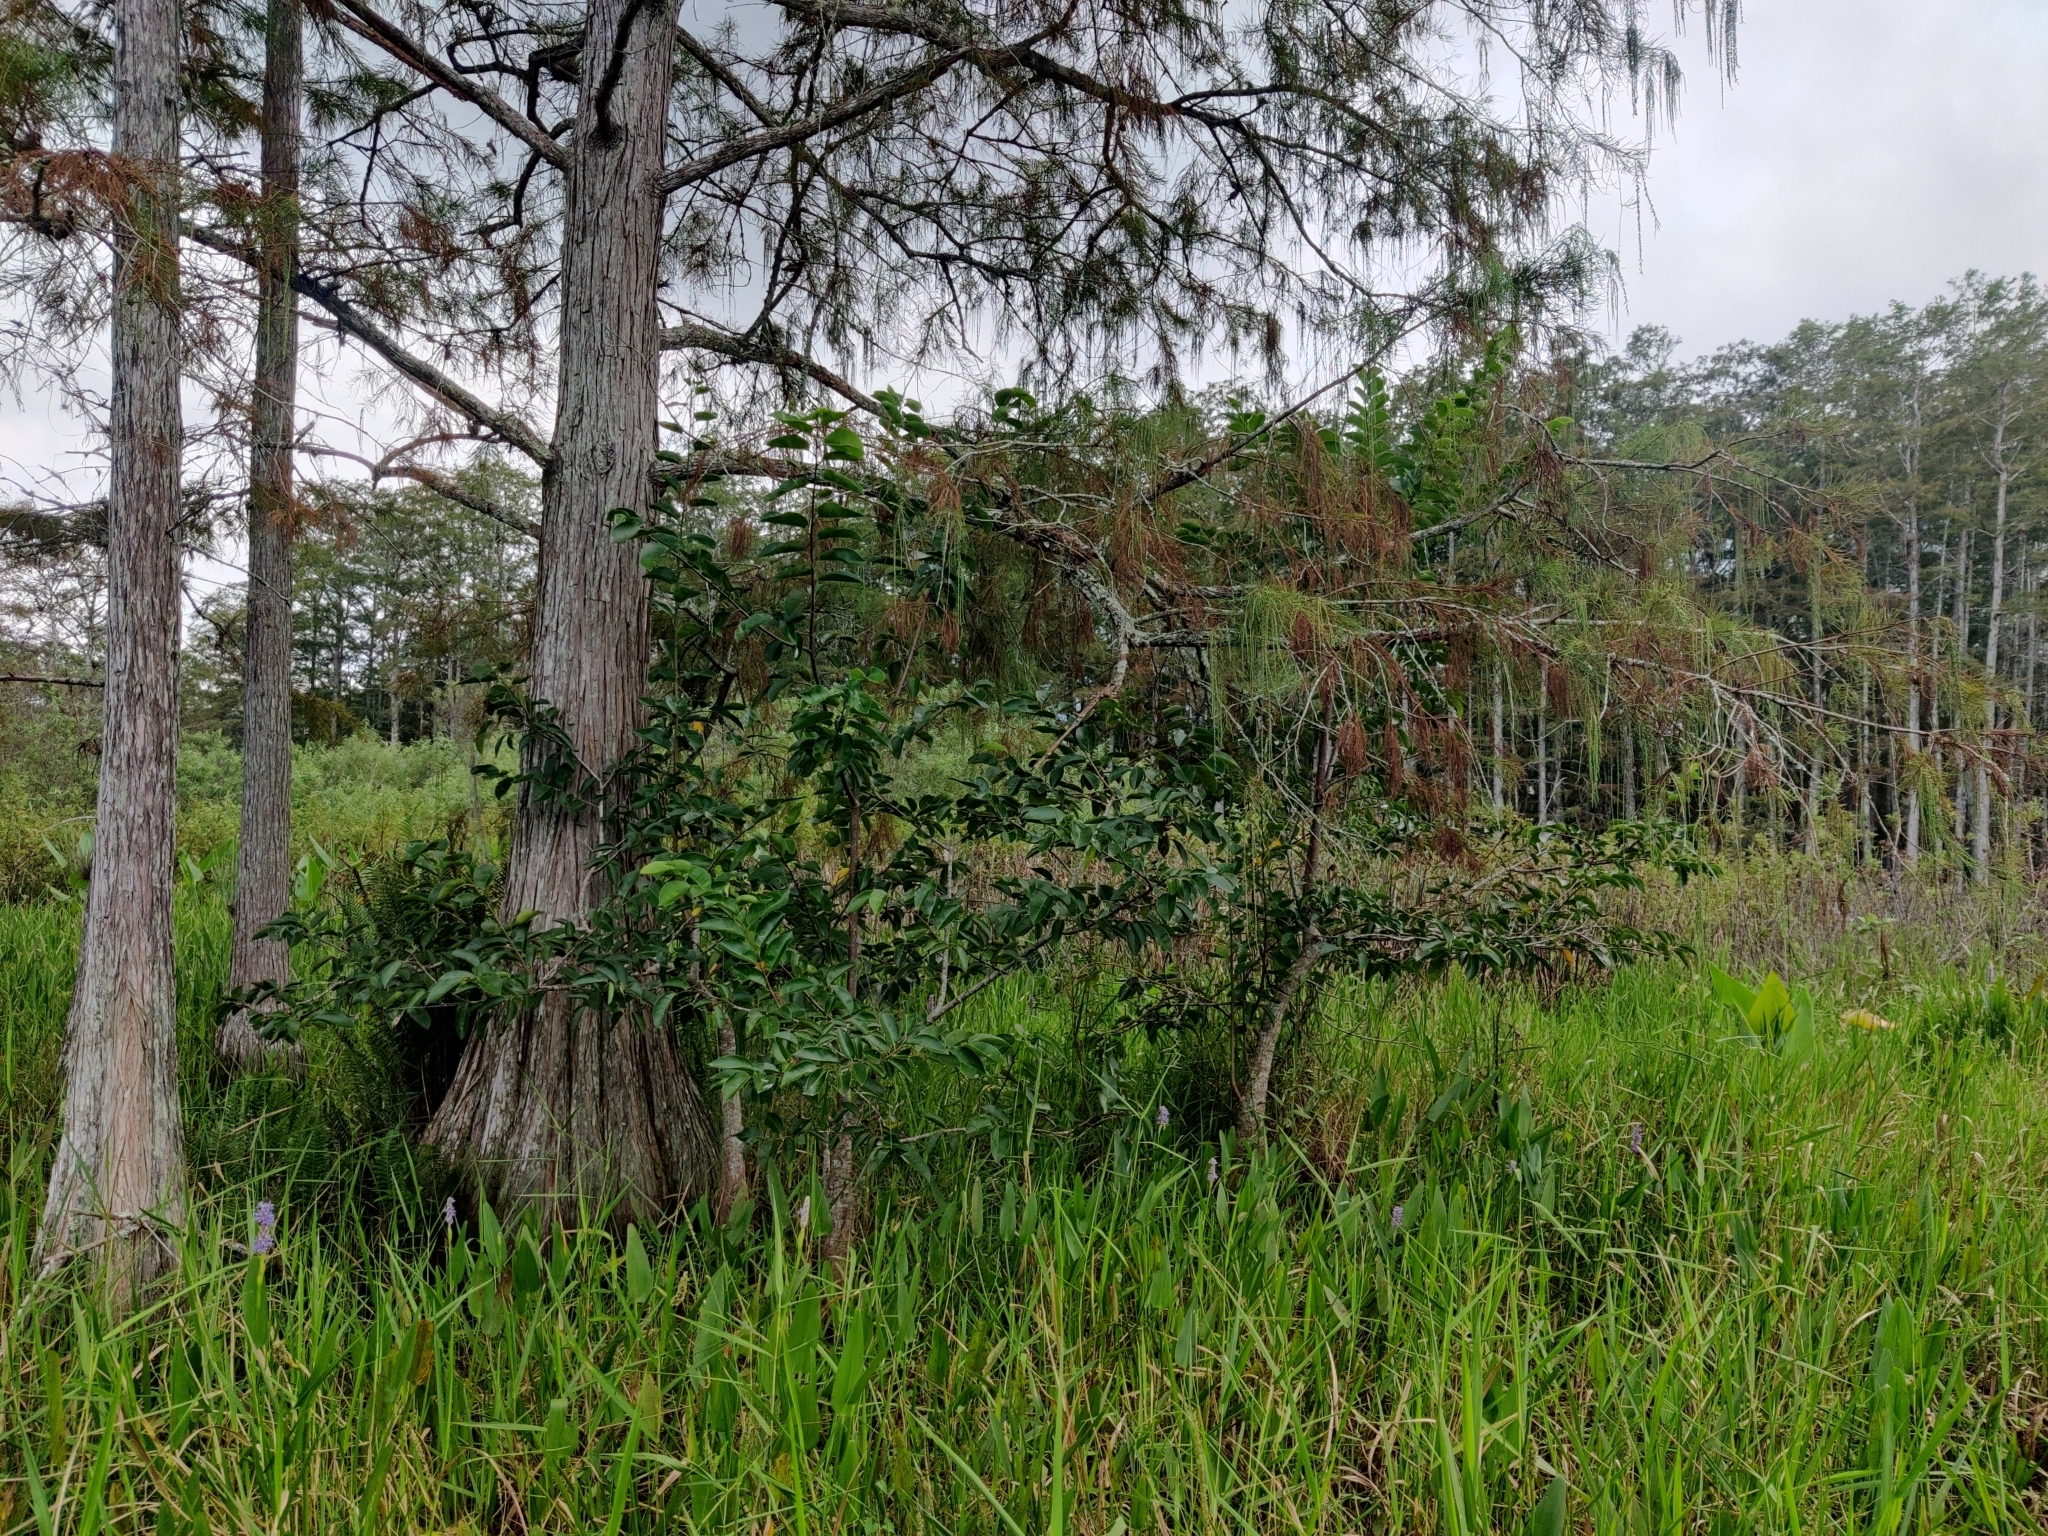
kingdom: Plantae
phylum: Tracheophyta
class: Magnoliopsida
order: Magnoliales
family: Annonaceae
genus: Annona
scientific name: Annona glabra
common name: Monkey apple
